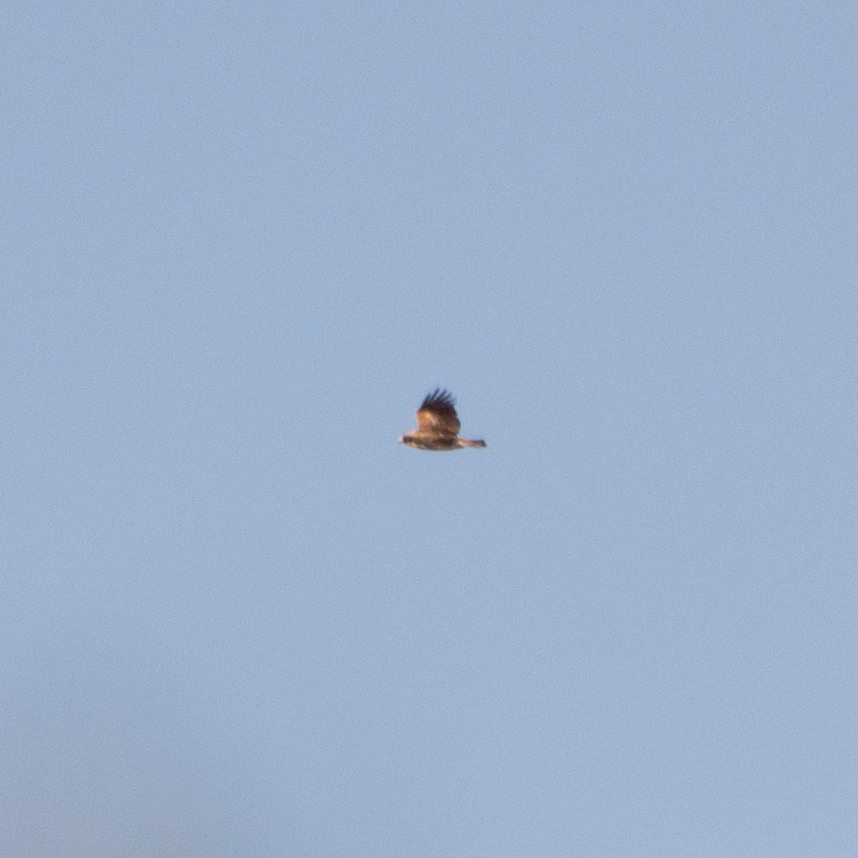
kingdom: Animalia
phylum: Chordata
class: Aves
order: Accipitriformes
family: Accipitridae
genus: Circaetus
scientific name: Circaetus gallicus
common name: Short-toed snake eagle
